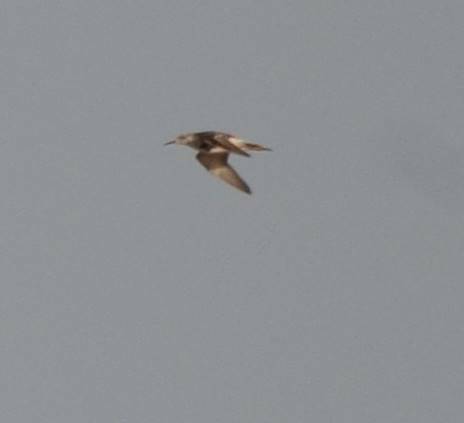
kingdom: Animalia
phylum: Chordata
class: Aves
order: Charadriiformes
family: Scolopacidae
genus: Calidris
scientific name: Calidris pugnax
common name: Ruff
